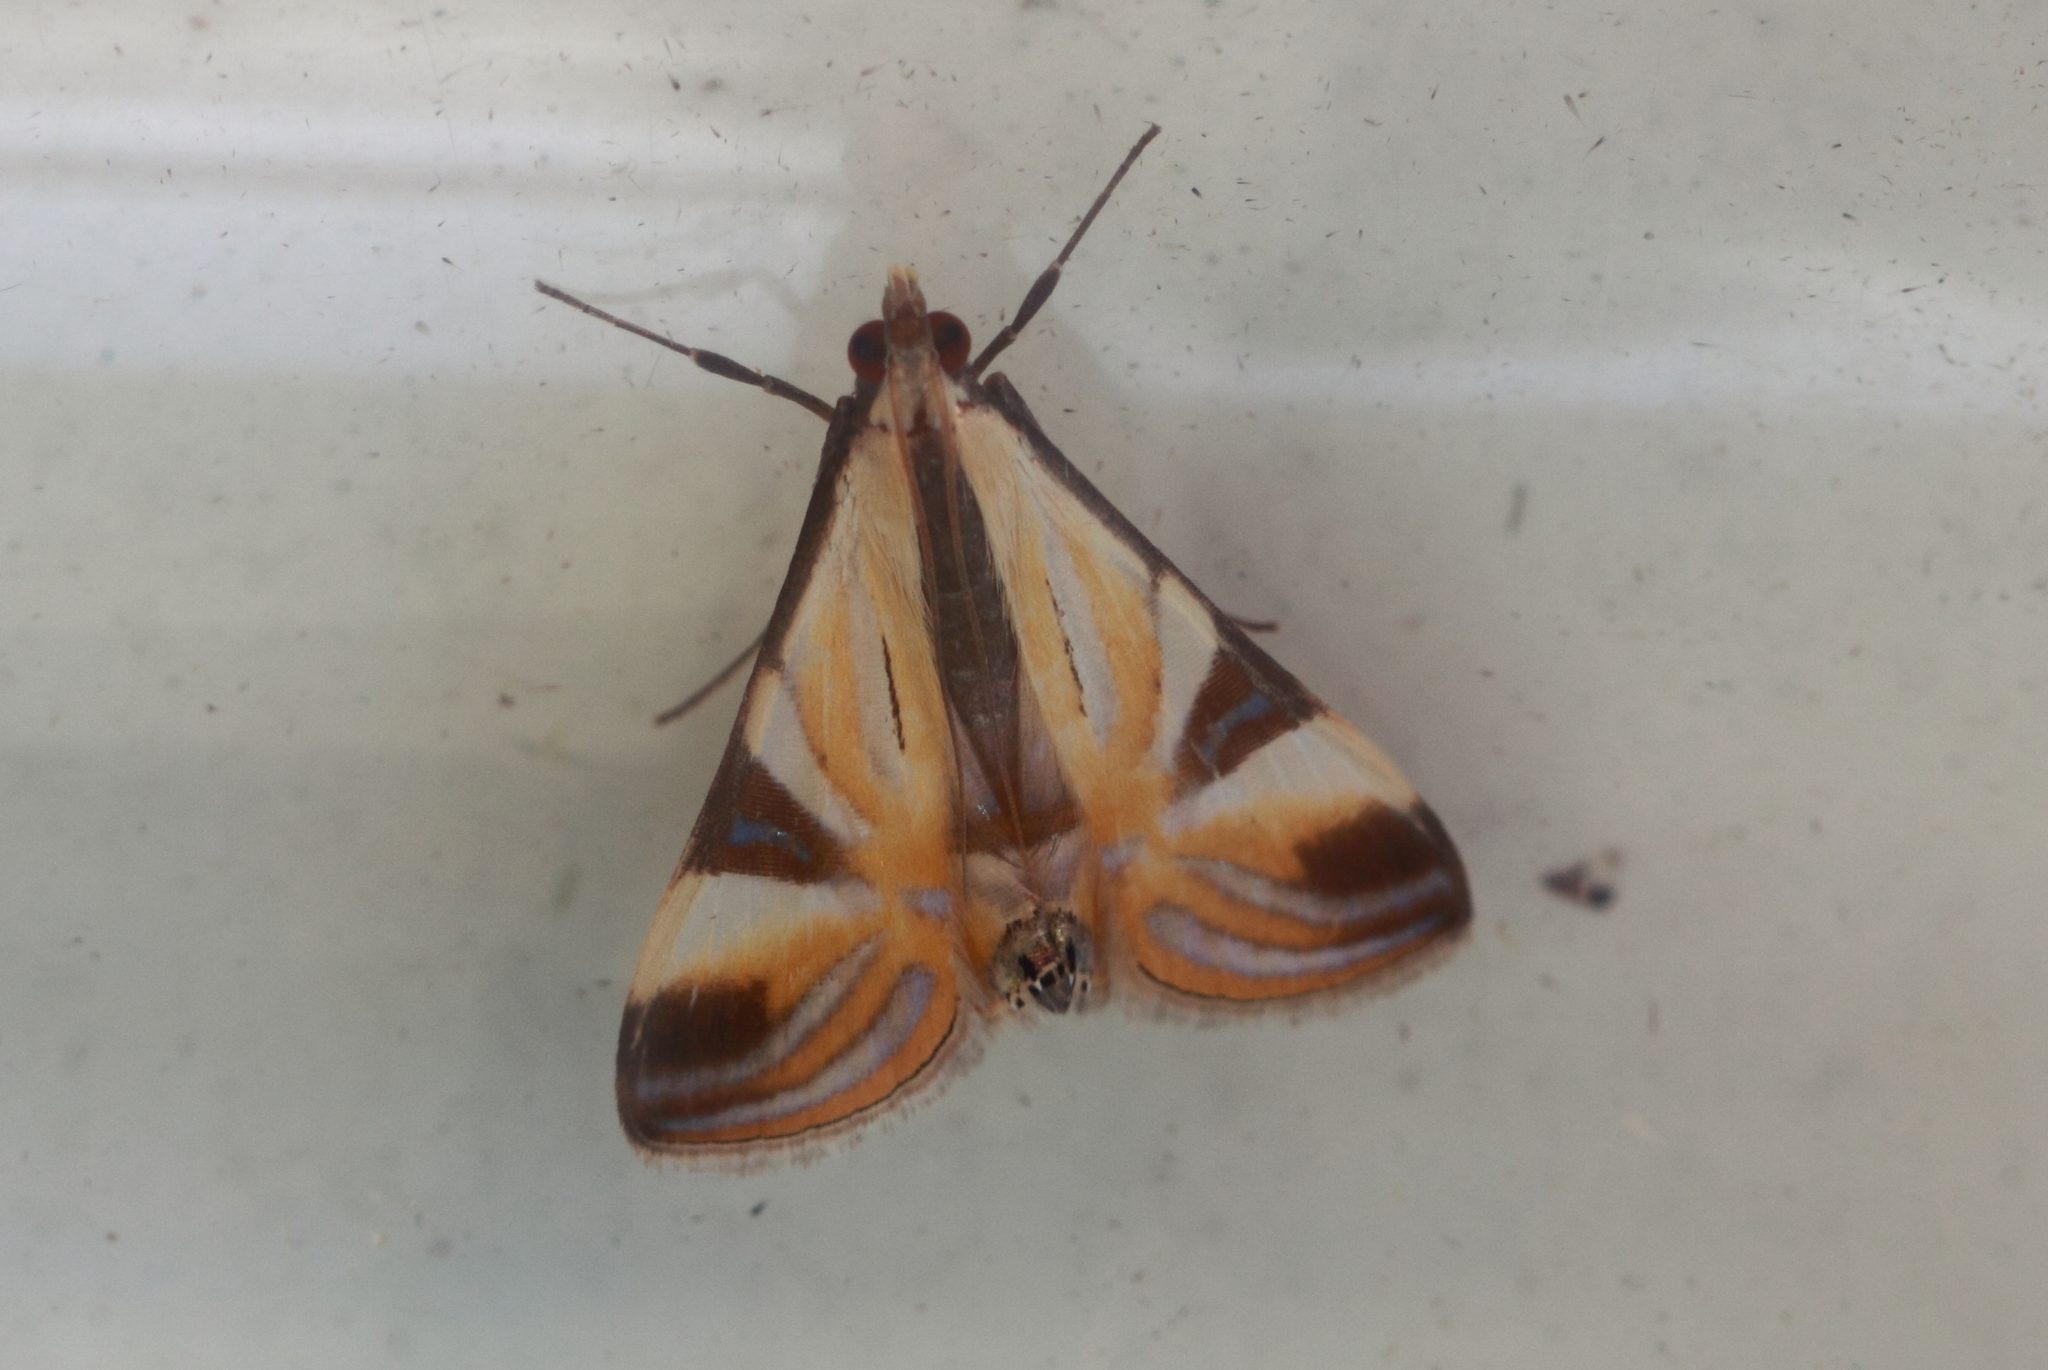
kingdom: Animalia
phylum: Arthropoda
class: Insecta
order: Lepidoptera
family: Crambidae
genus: Talanga
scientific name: Talanga tolumnialis
